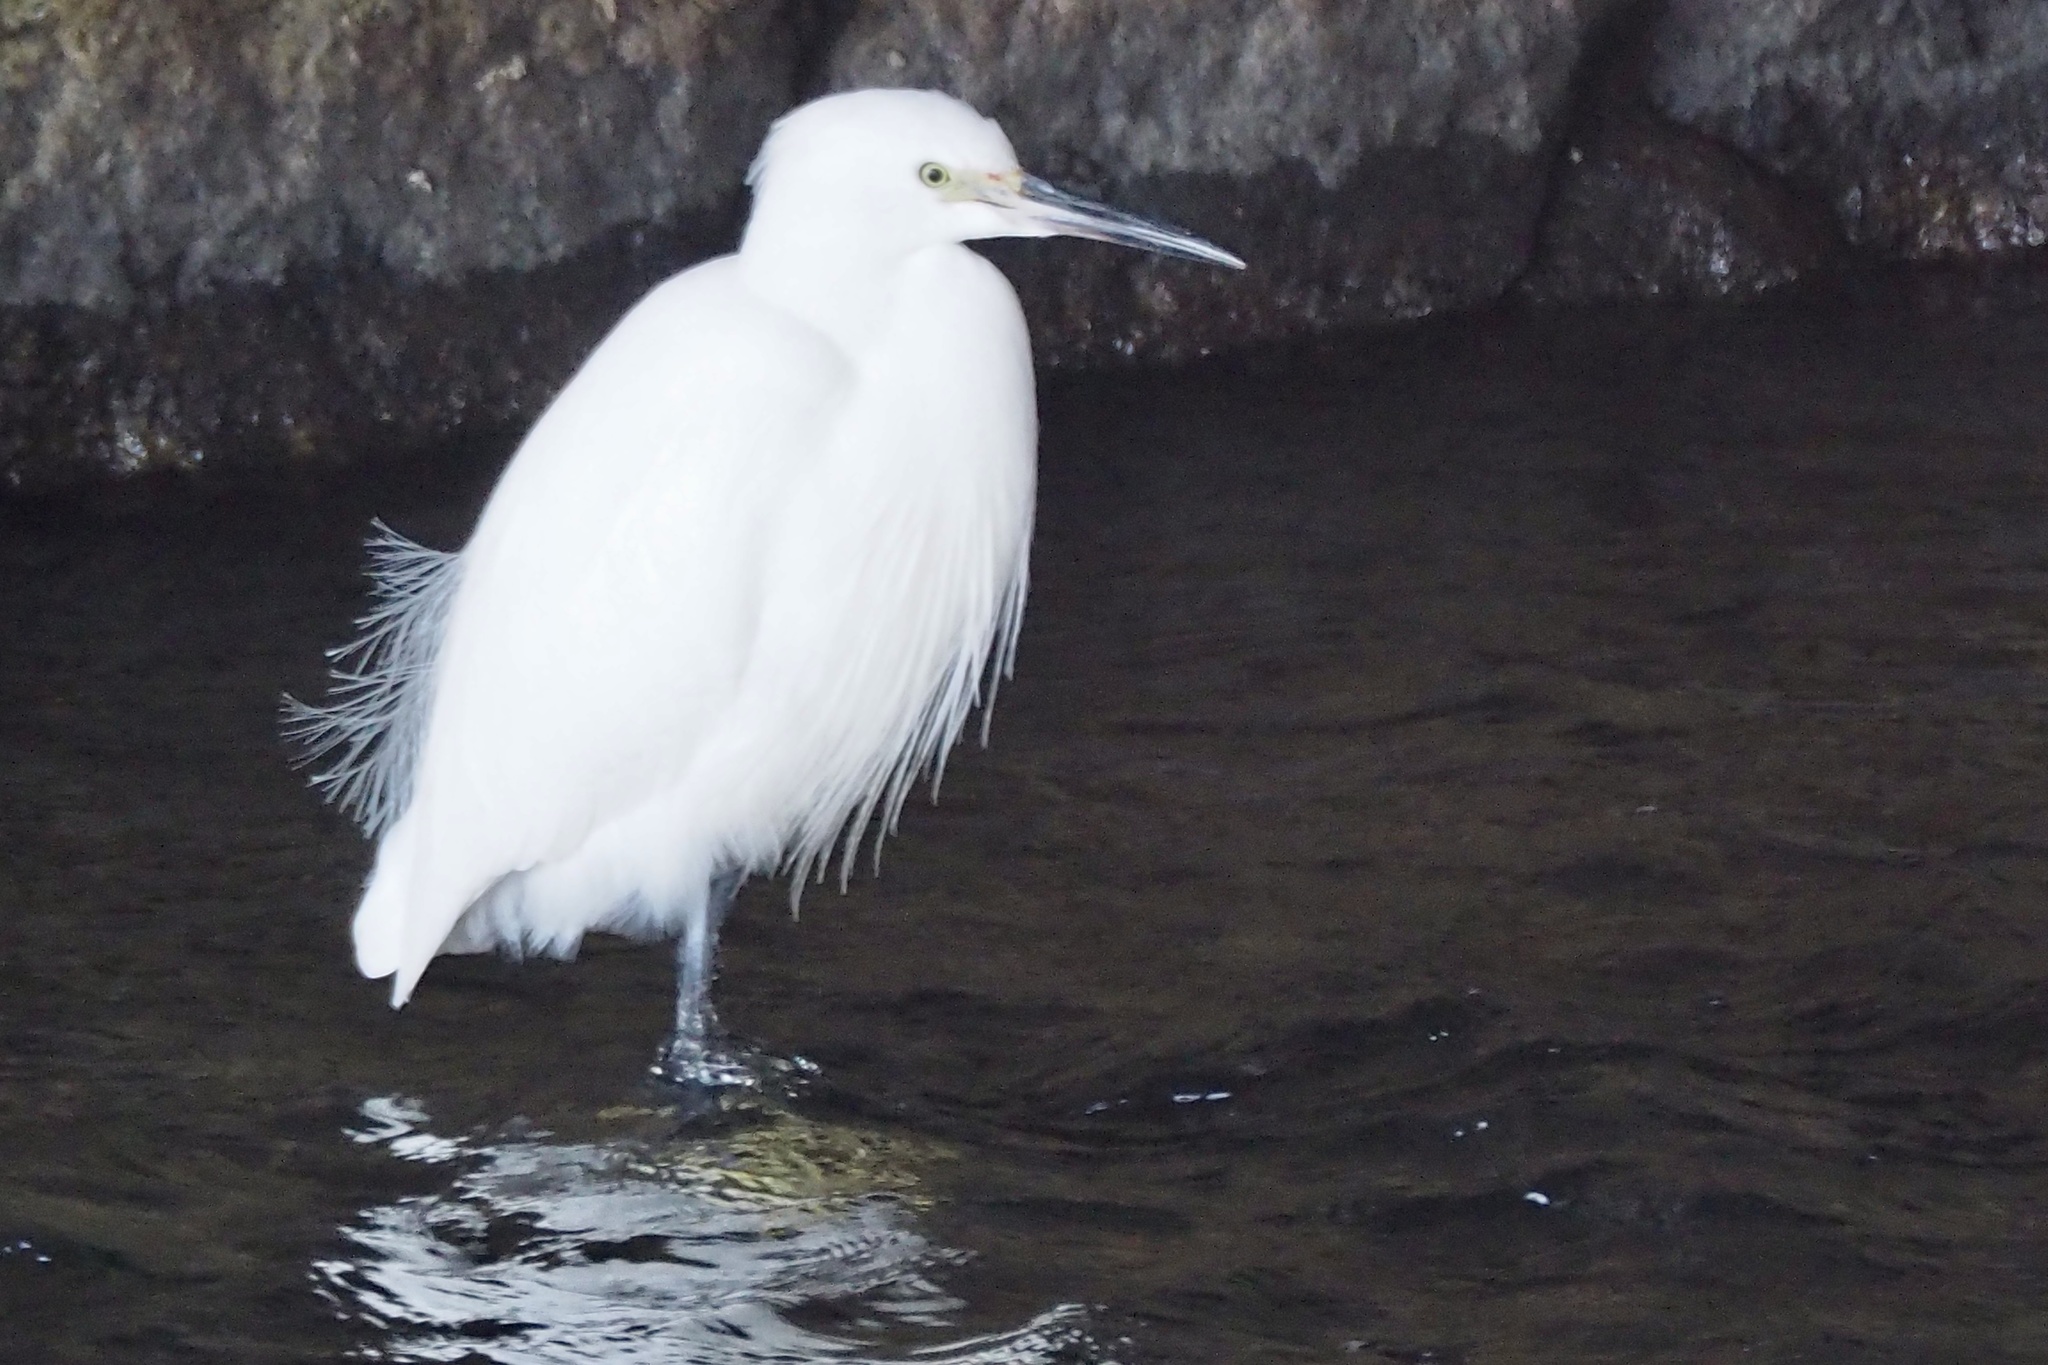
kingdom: Animalia
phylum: Chordata
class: Aves
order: Pelecaniformes
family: Ardeidae
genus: Egretta
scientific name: Egretta garzetta
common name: Little egret
